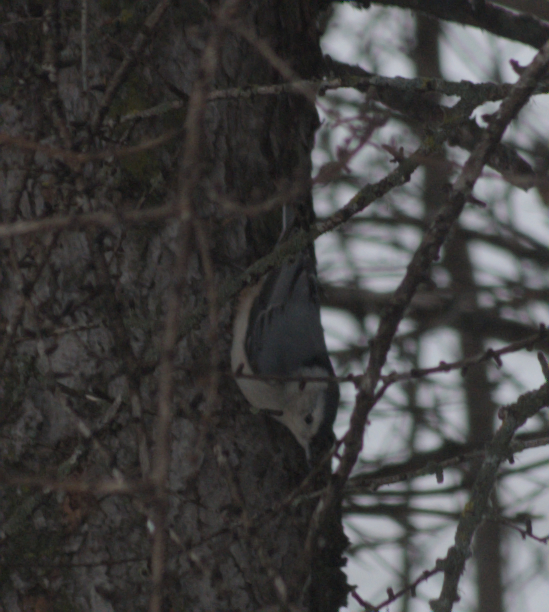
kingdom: Animalia
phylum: Chordata
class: Aves
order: Passeriformes
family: Sittidae
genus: Sitta
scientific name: Sitta carolinensis
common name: White-breasted nuthatch
